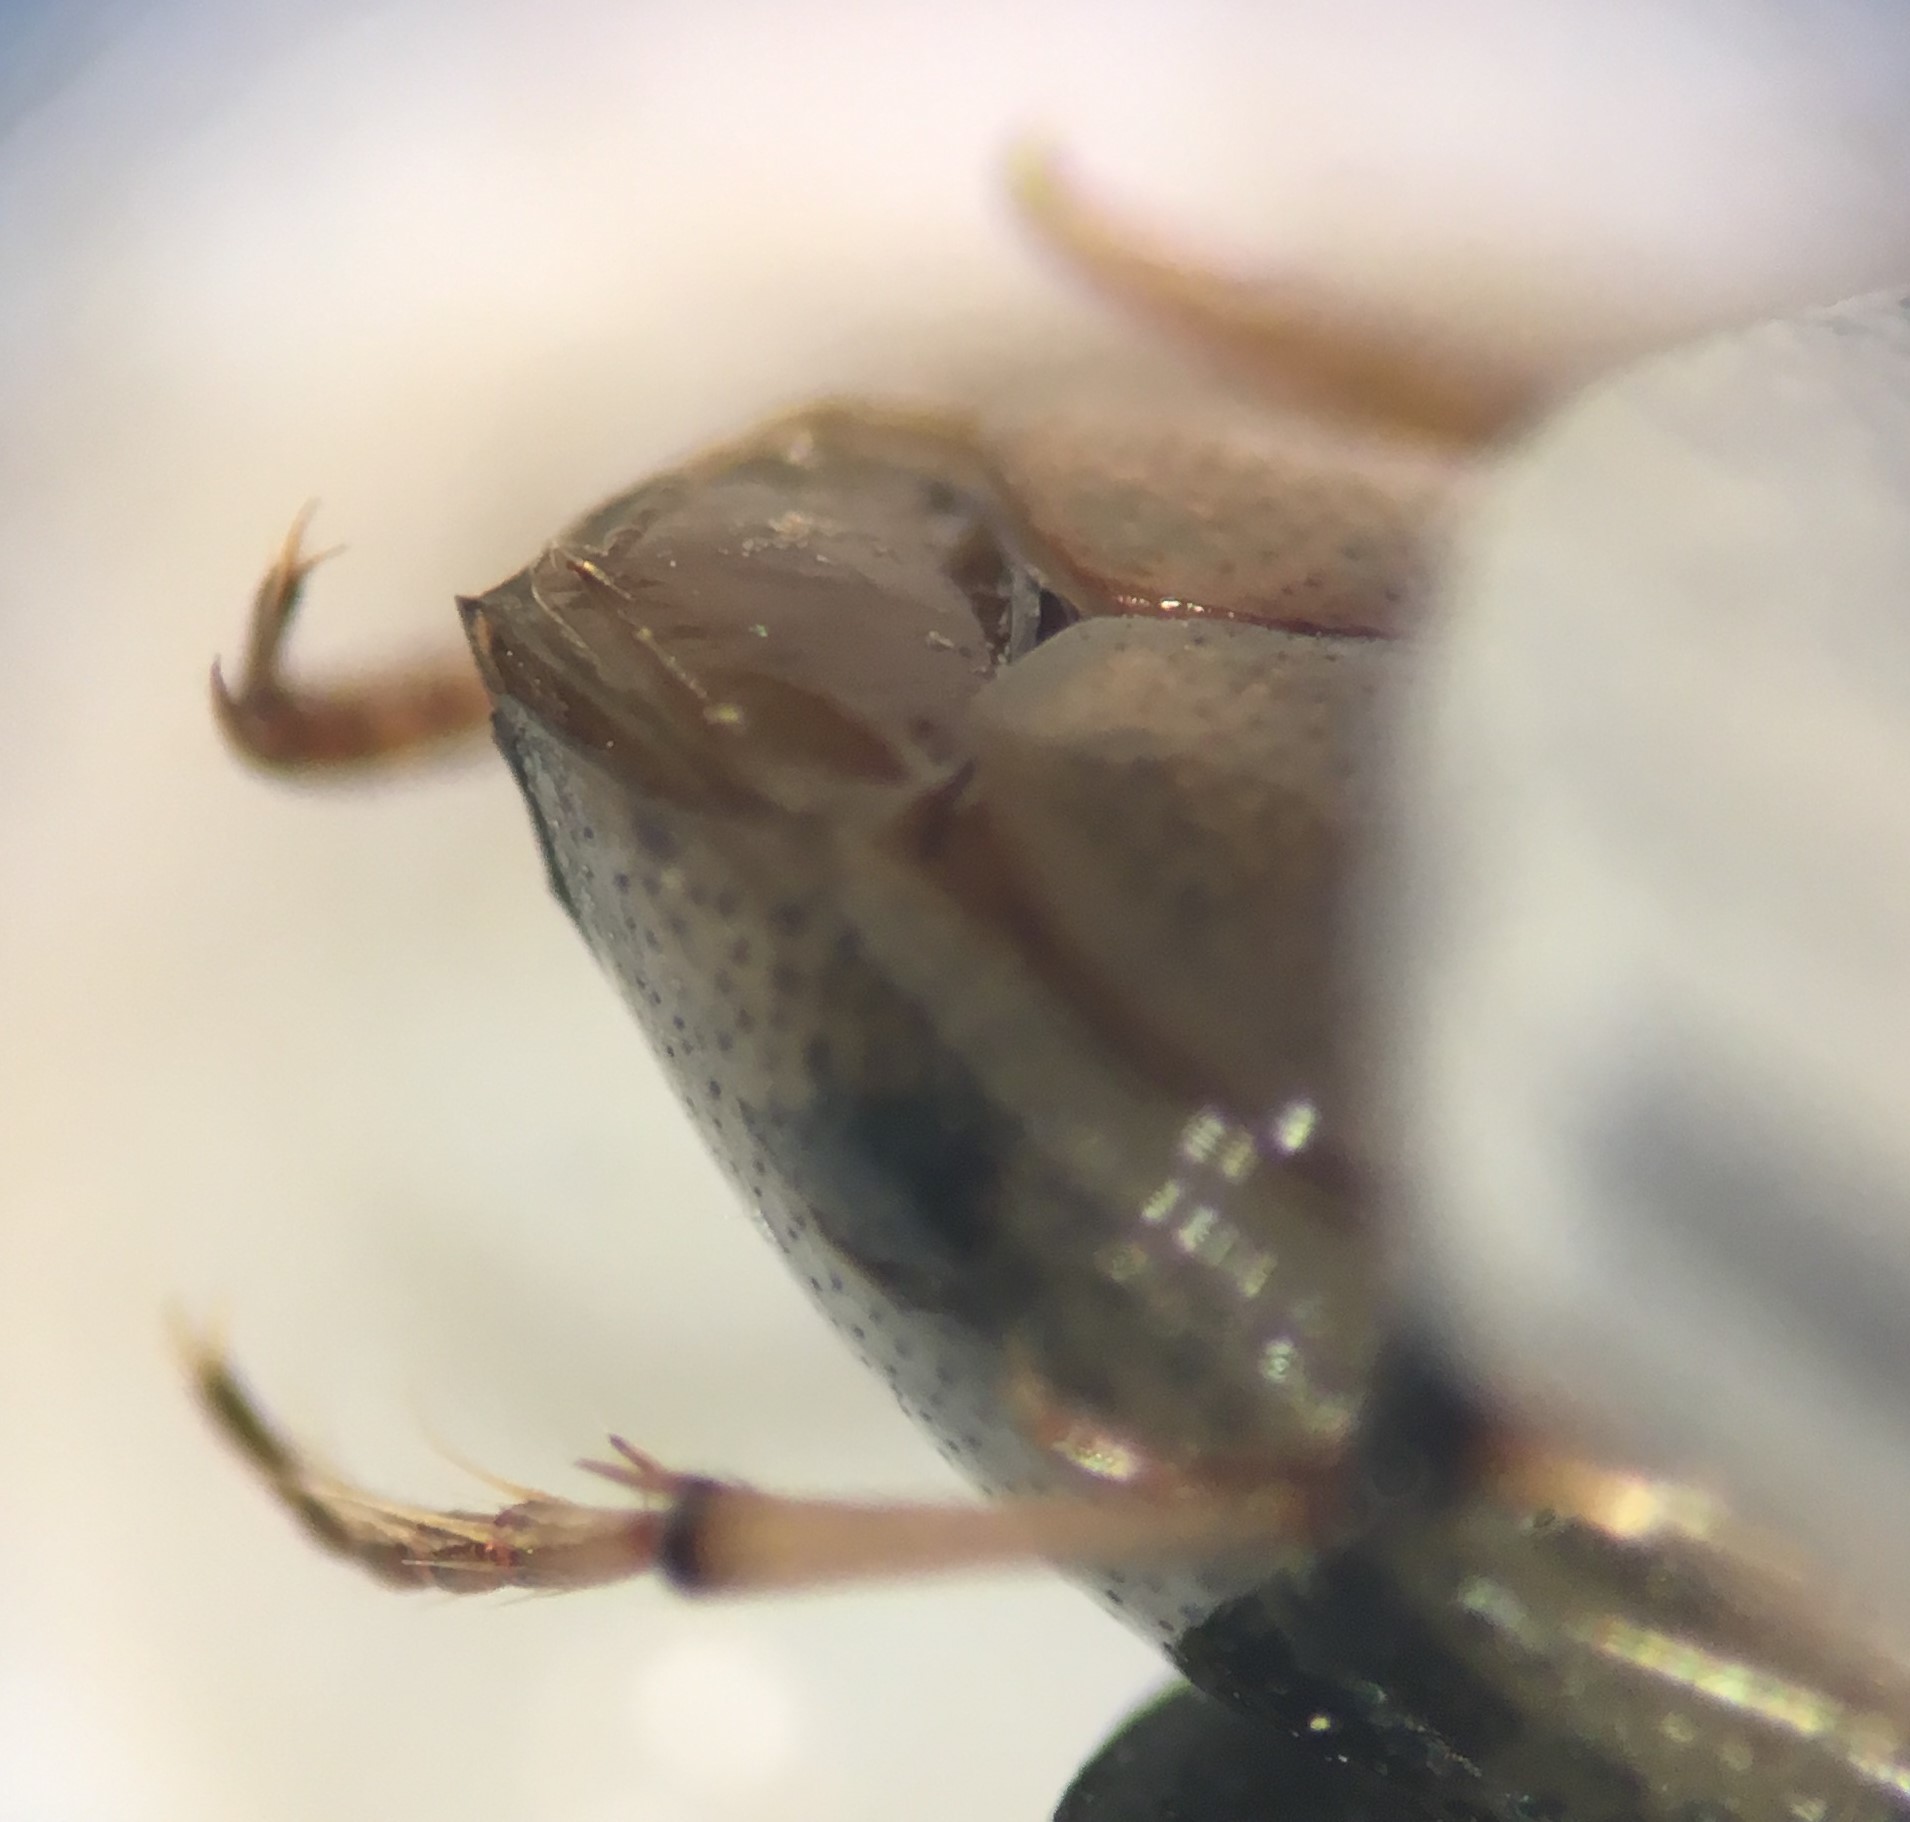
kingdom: Animalia
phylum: Arthropoda
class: Insecta
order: Coleoptera
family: Haliplidae
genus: Peltodytes
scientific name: Peltodytes dunavani
